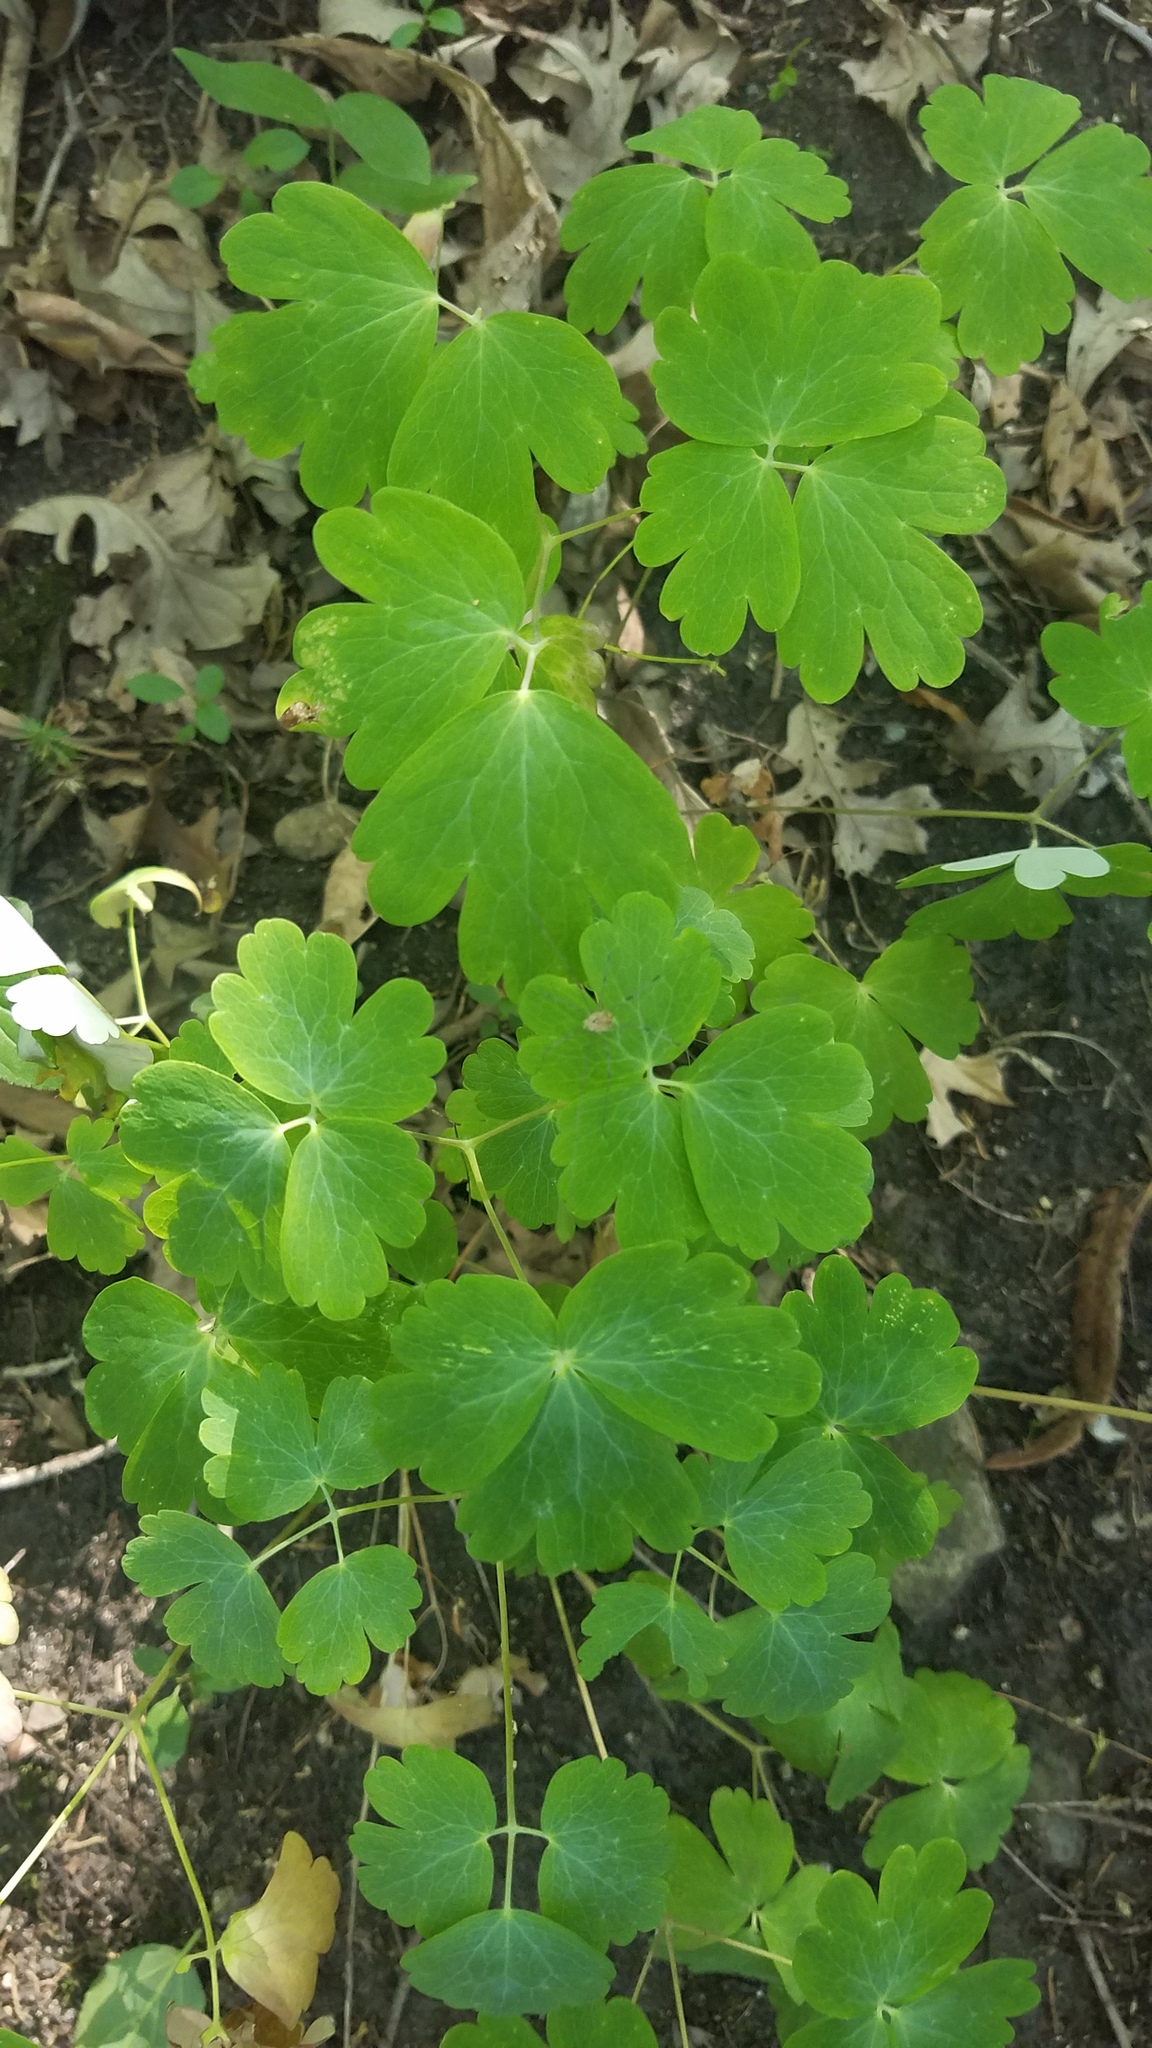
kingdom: Plantae
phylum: Tracheophyta
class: Magnoliopsida
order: Ranunculales
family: Ranunculaceae
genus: Aquilegia
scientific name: Aquilegia canadensis
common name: American columbine
